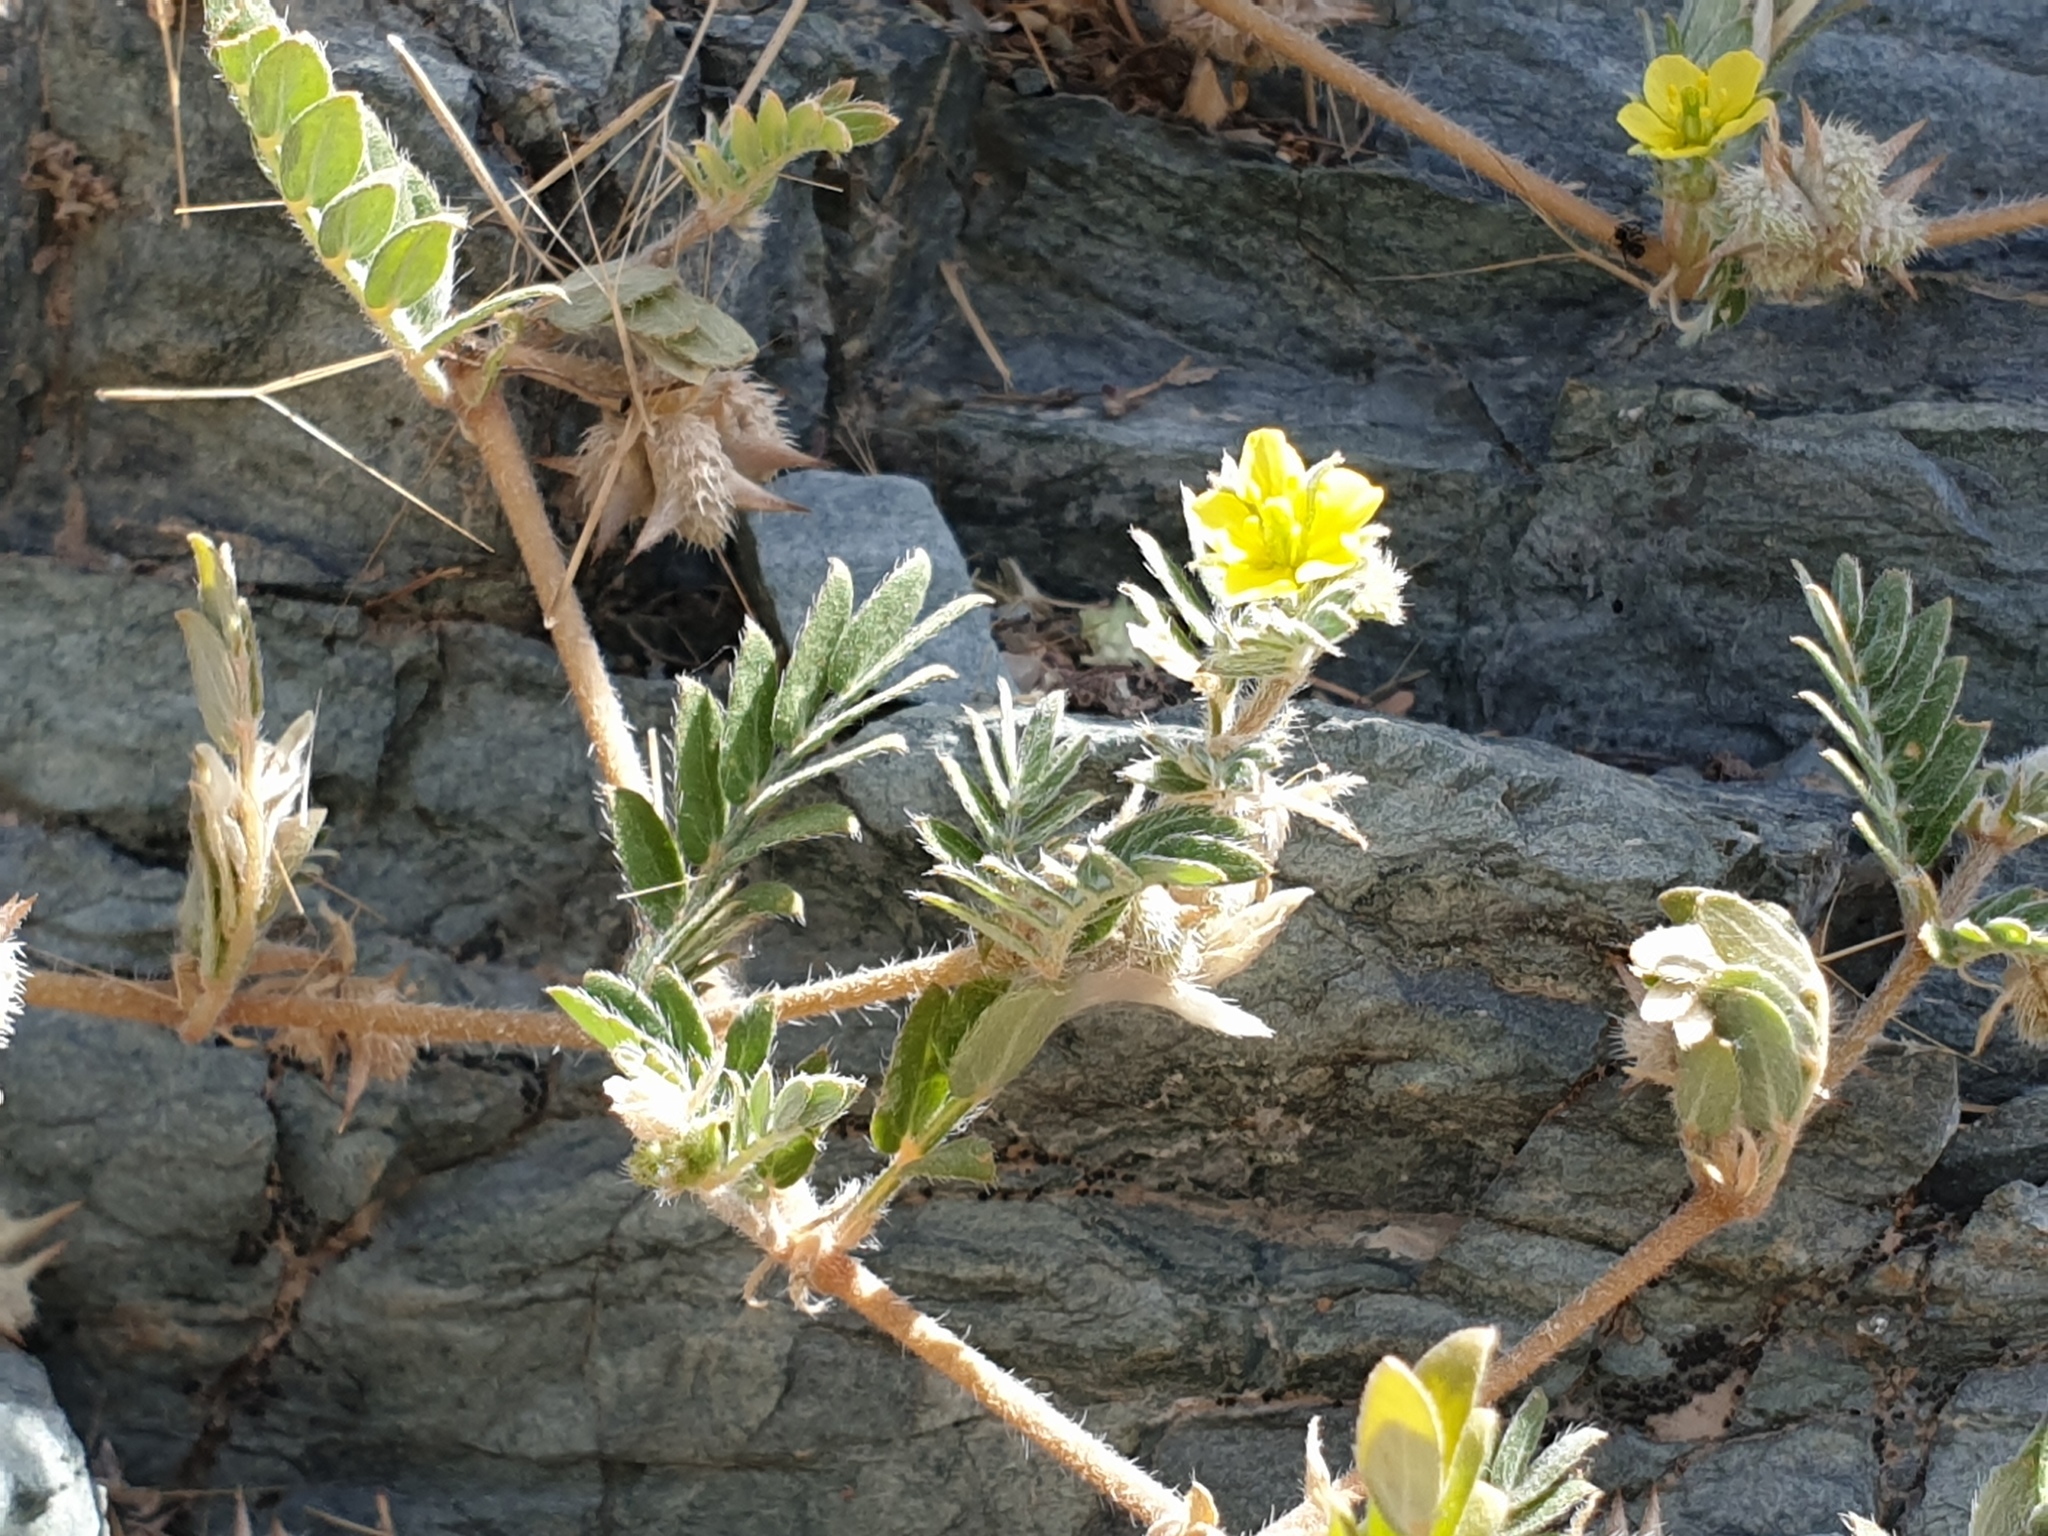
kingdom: Plantae
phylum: Tracheophyta
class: Magnoliopsida
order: Zygophyllales
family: Zygophyllaceae
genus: Tribulus
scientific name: Tribulus pentandrus
